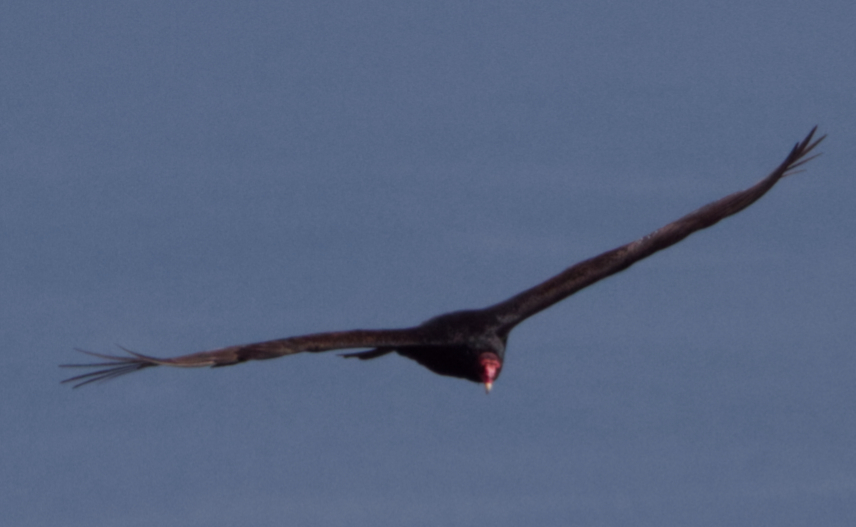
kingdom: Animalia
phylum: Chordata
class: Aves
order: Accipitriformes
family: Cathartidae
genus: Cathartes
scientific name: Cathartes aura
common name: Turkey vulture
